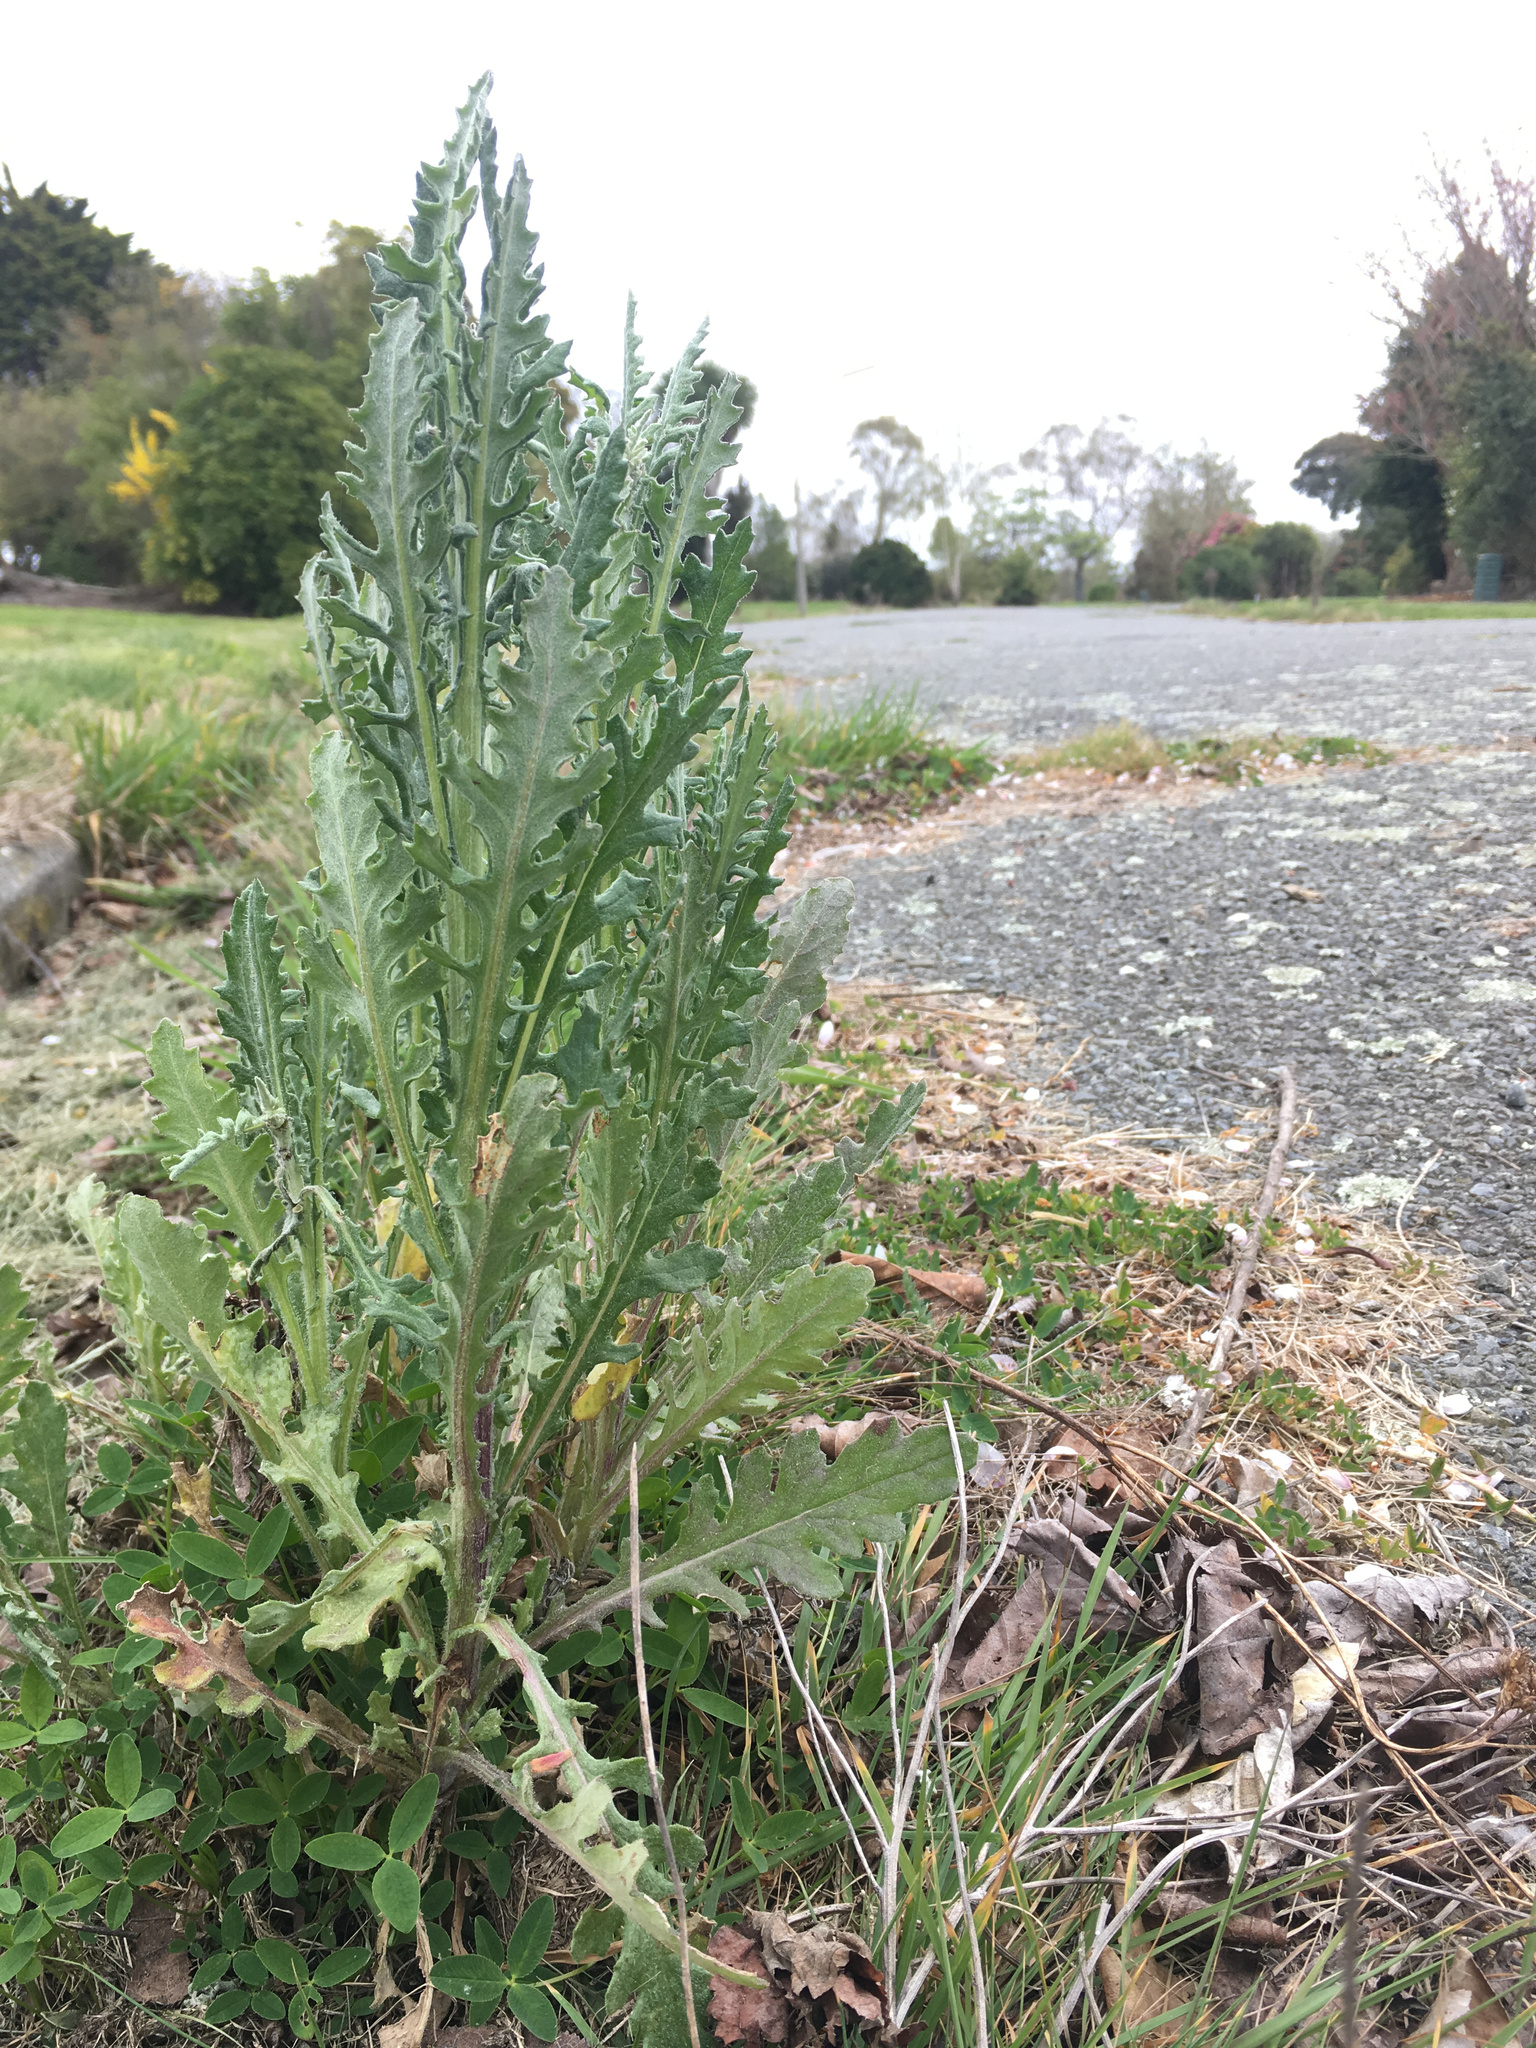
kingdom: Plantae
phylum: Tracheophyta
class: Magnoliopsida
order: Asterales
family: Asteraceae
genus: Senecio
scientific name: Senecio glomeratus
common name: Cutleaf burnweed
